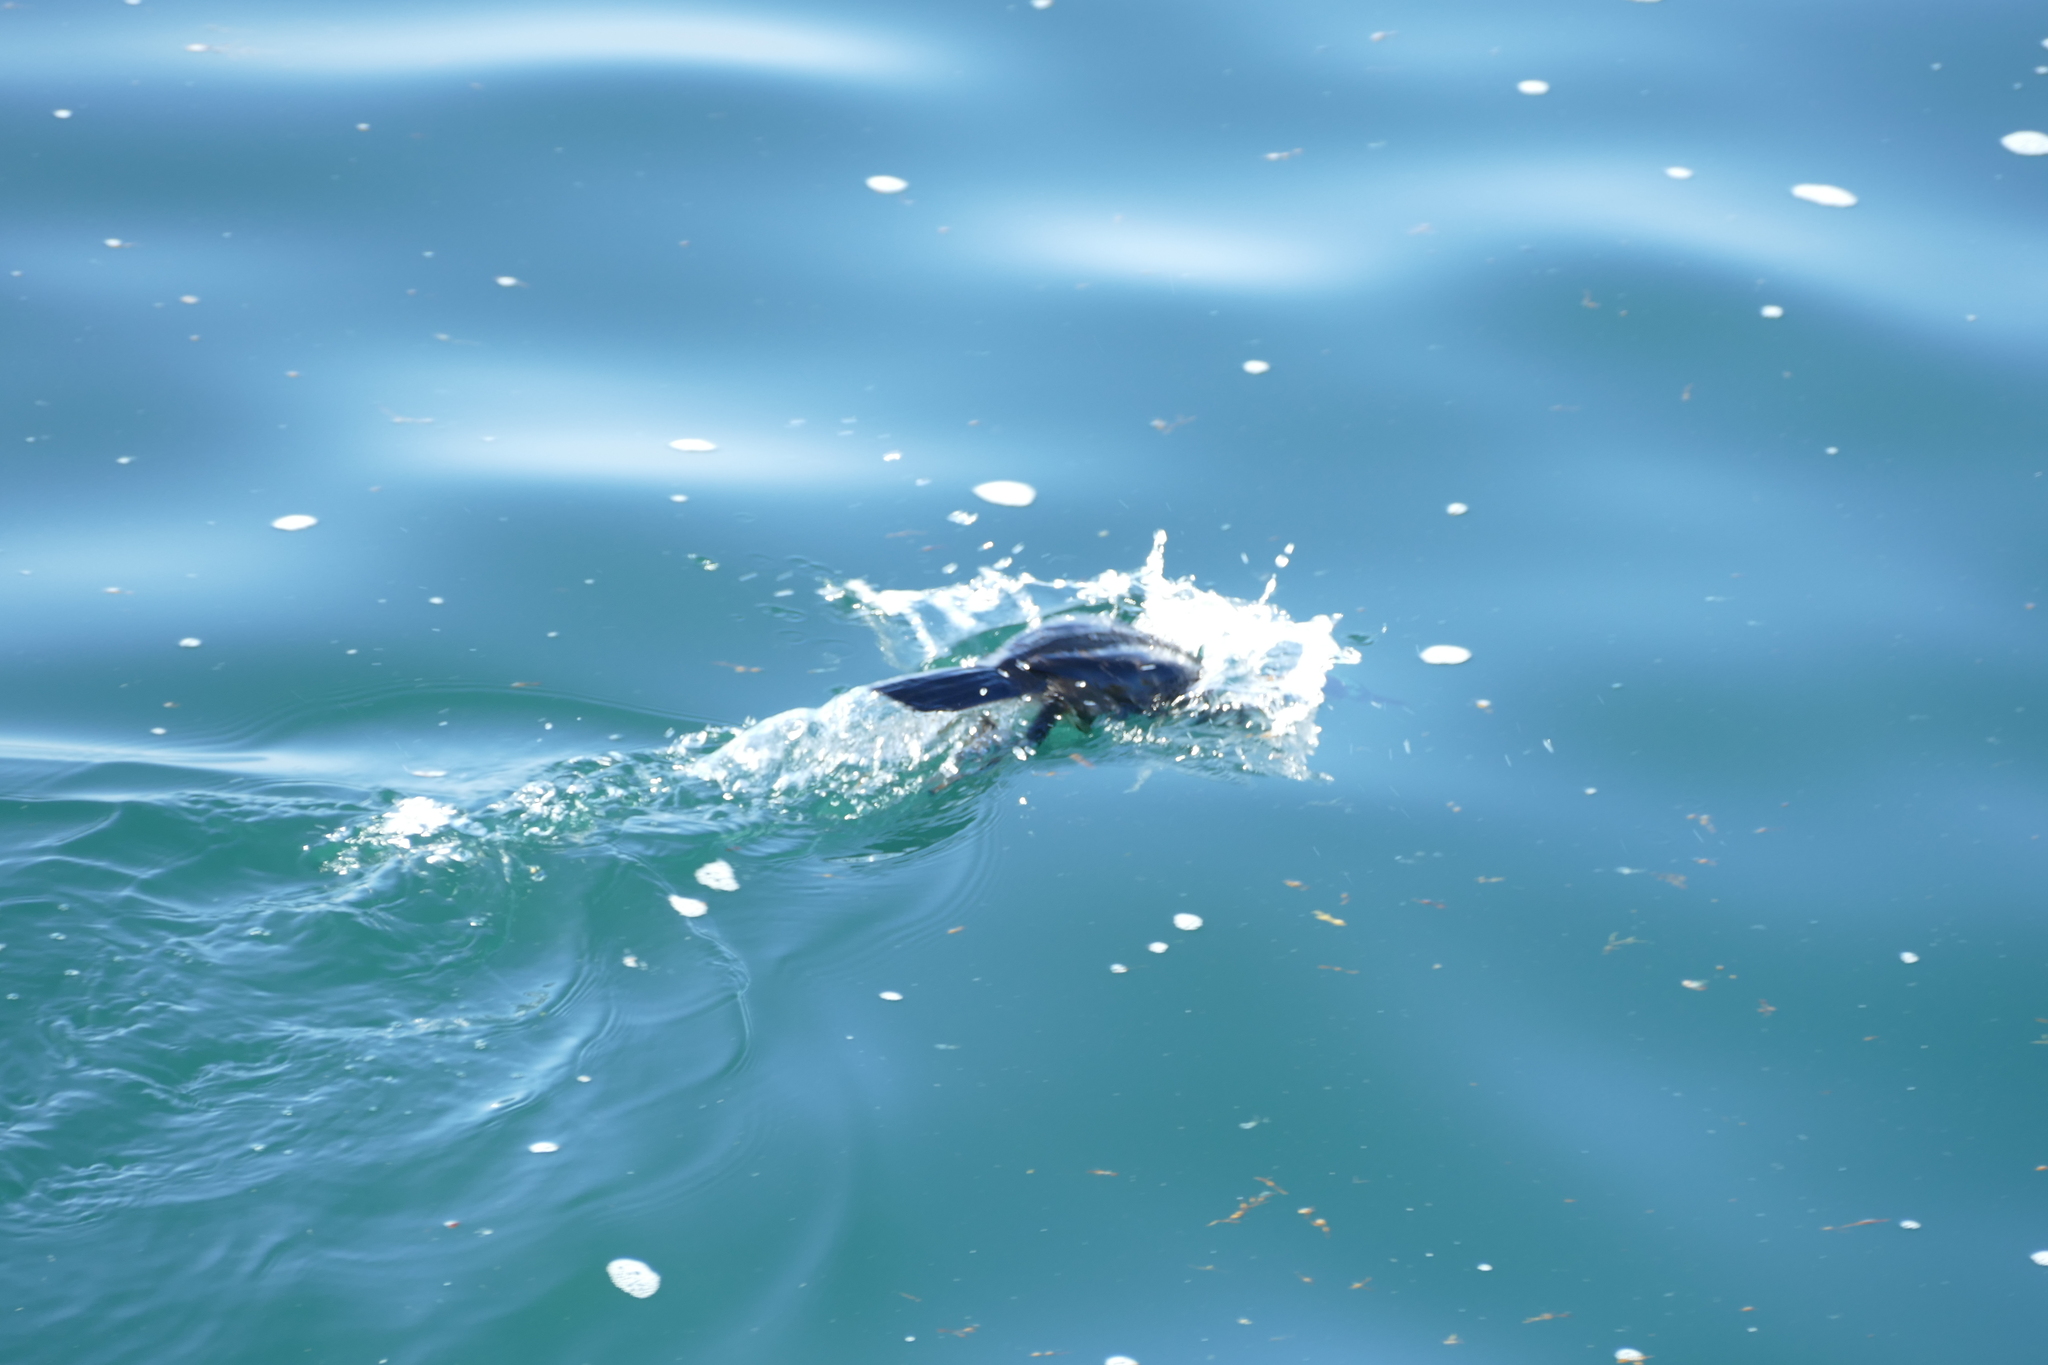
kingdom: Animalia
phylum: Chordata
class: Aves
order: Suliformes
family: Phalacrocoracidae
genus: Phalacrocorax
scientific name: Phalacrocorax aristotelis
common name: European shag
